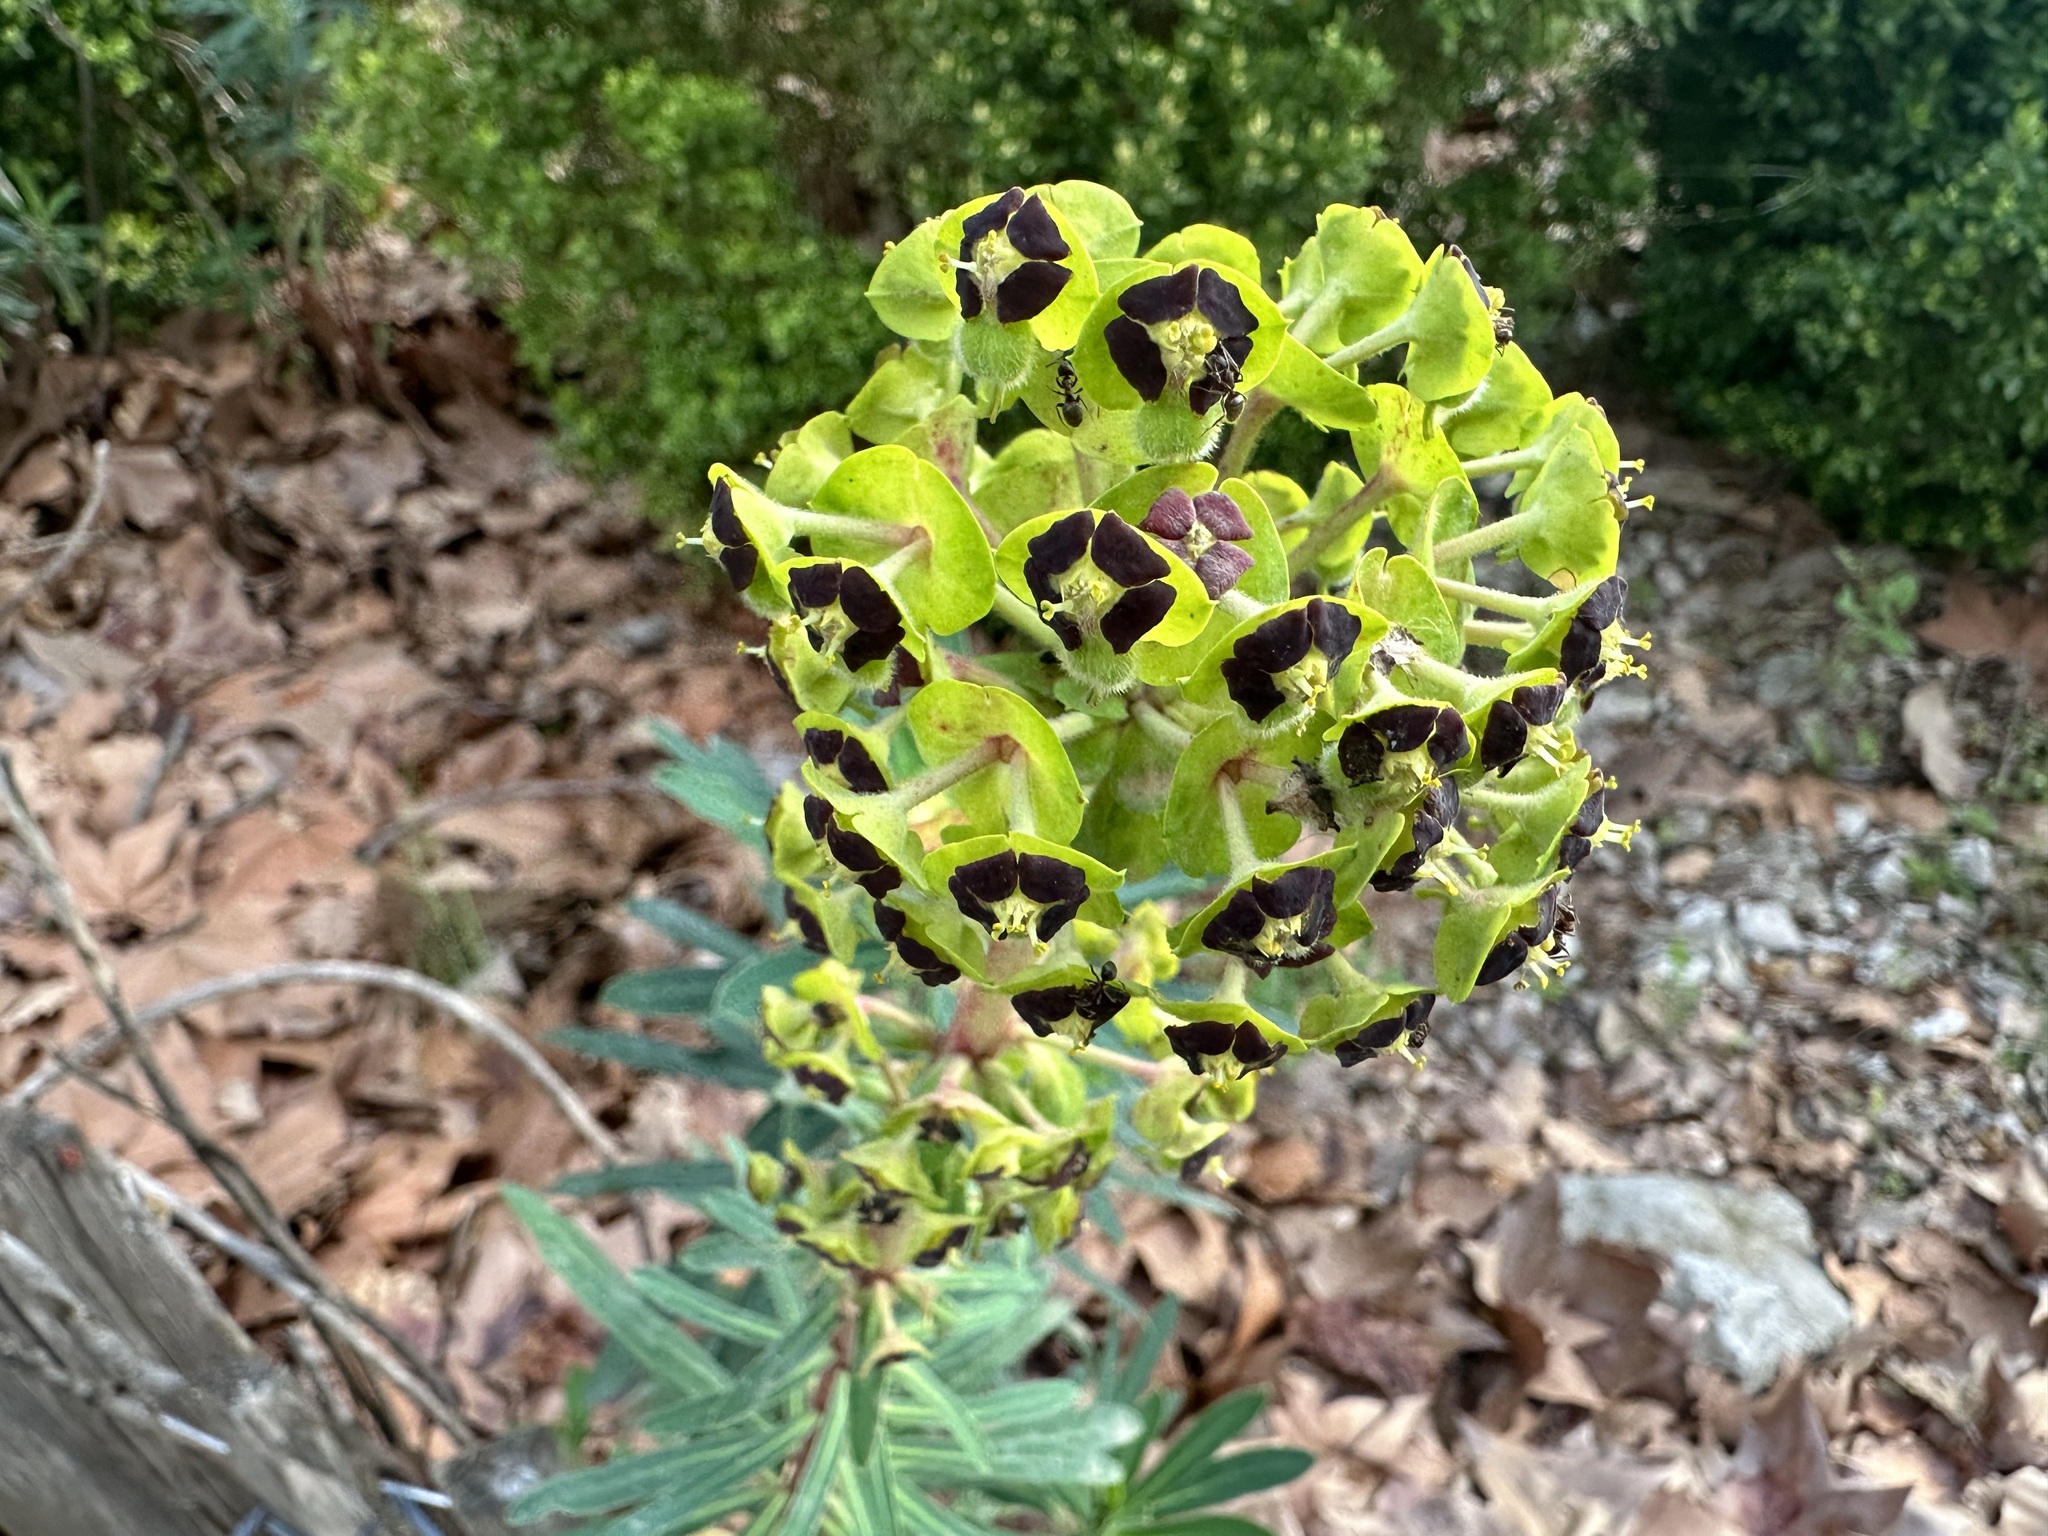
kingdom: Plantae
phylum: Tracheophyta
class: Magnoliopsida
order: Malpighiales
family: Euphorbiaceae
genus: Euphorbia
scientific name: Euphorbia characias
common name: Mediterranean spurge
